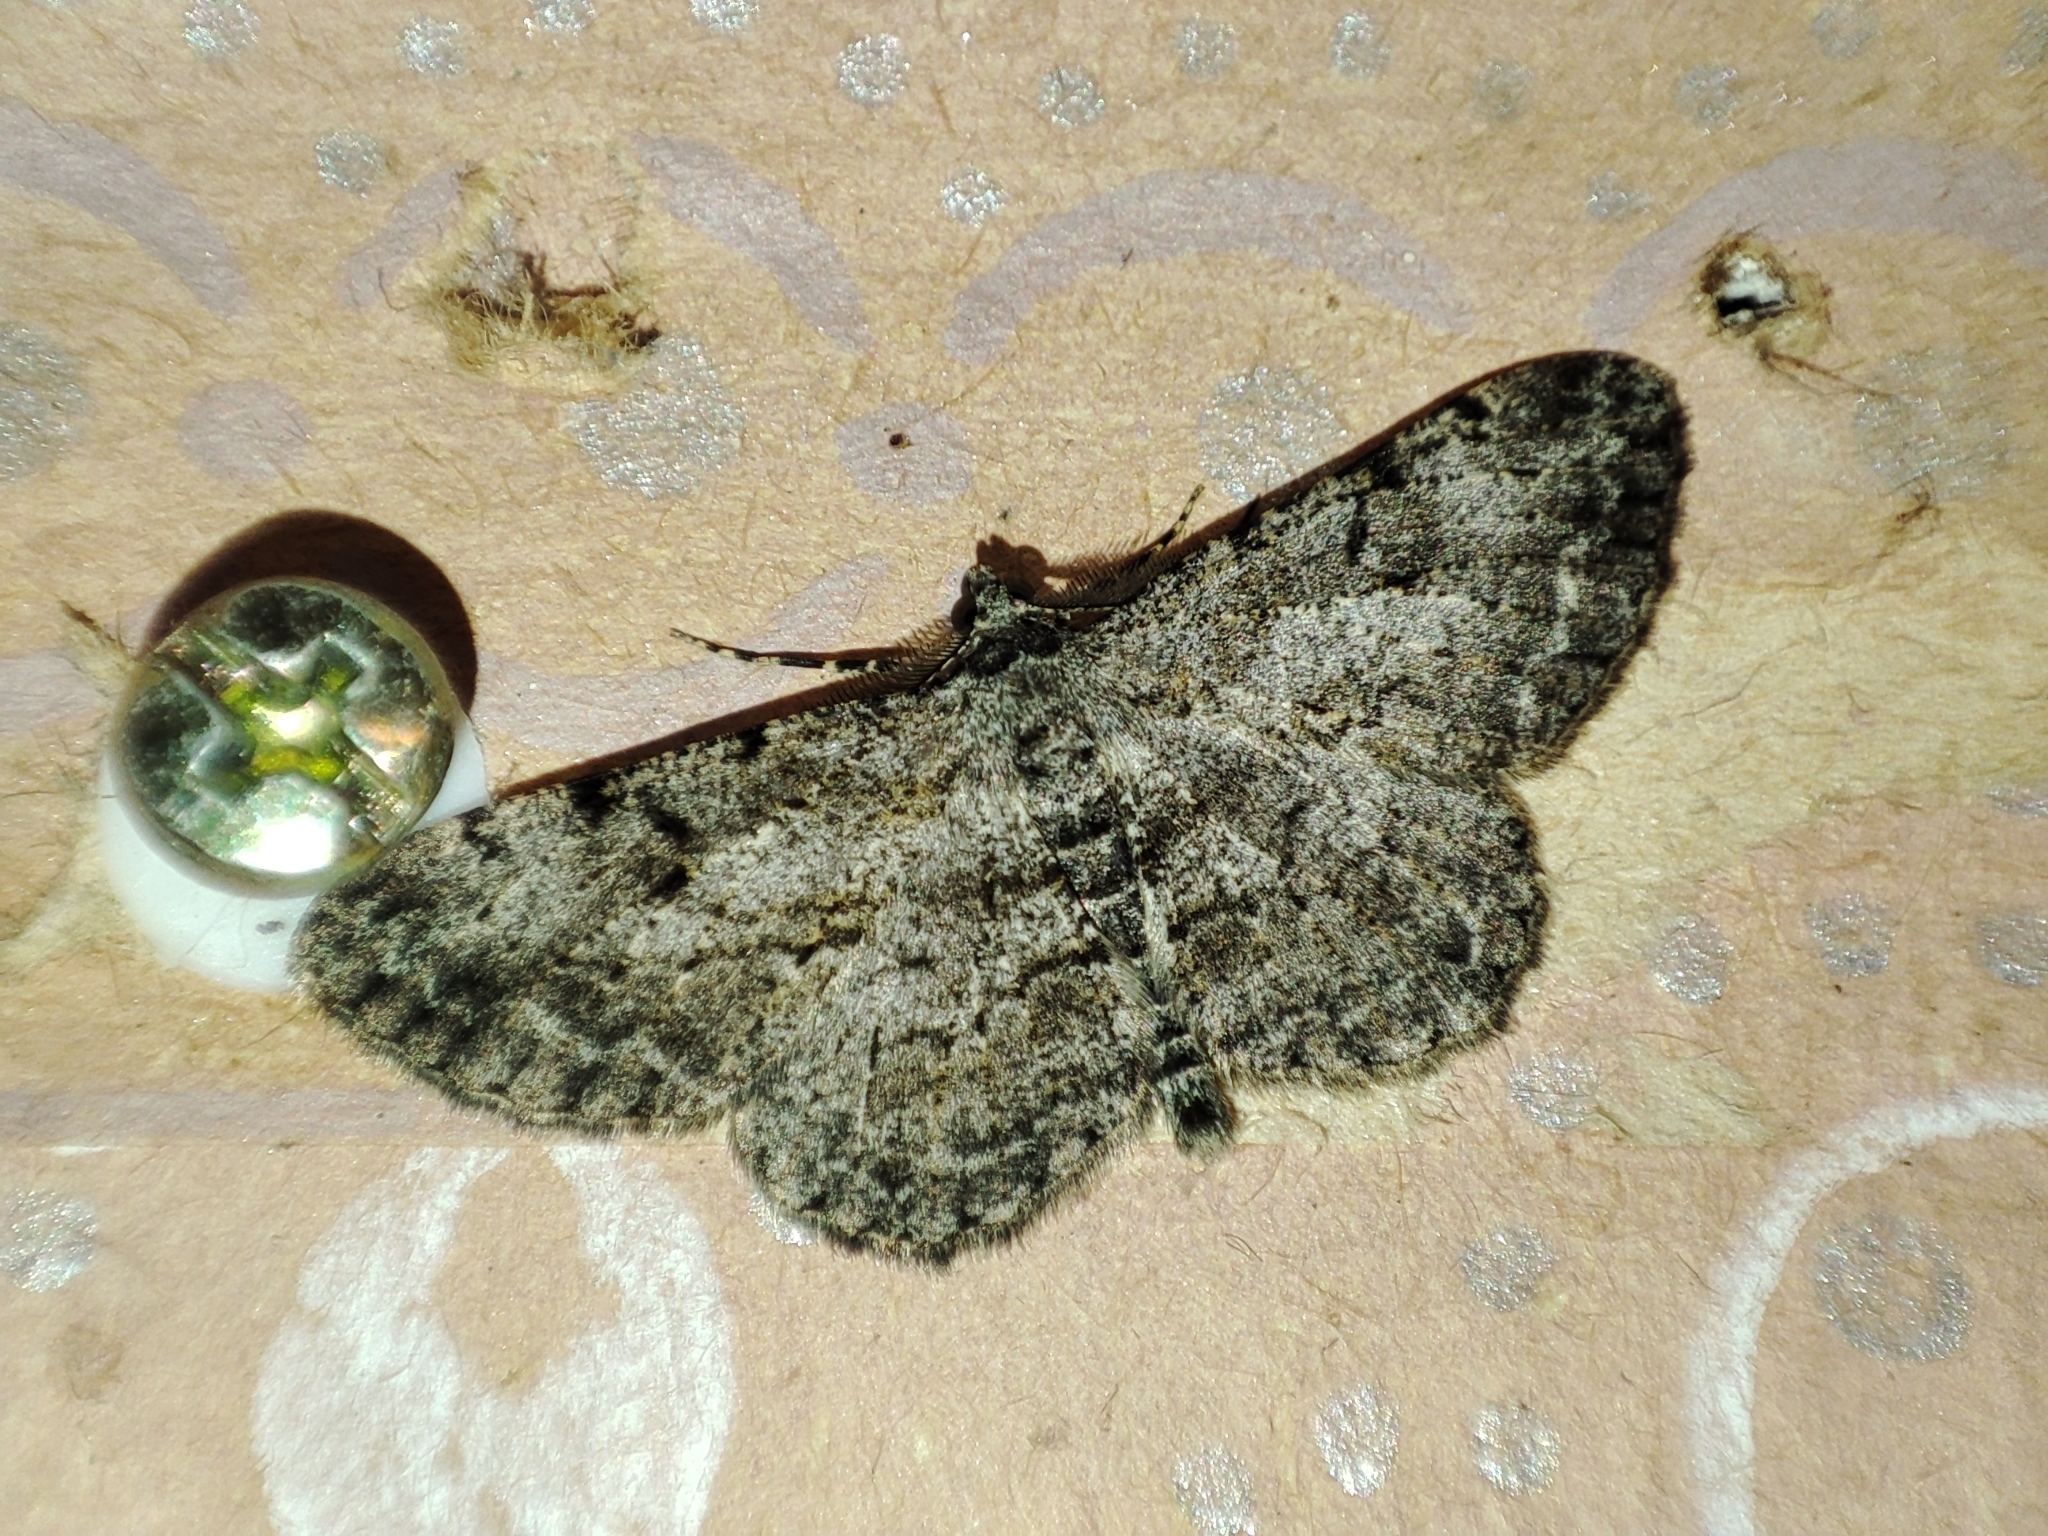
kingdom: Animalia
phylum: Arthropoda
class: Insecta
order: Lepidoptera
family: Geometridae
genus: Peribatodes
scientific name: Peribatodes rhomboidaria
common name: Willow beauty
